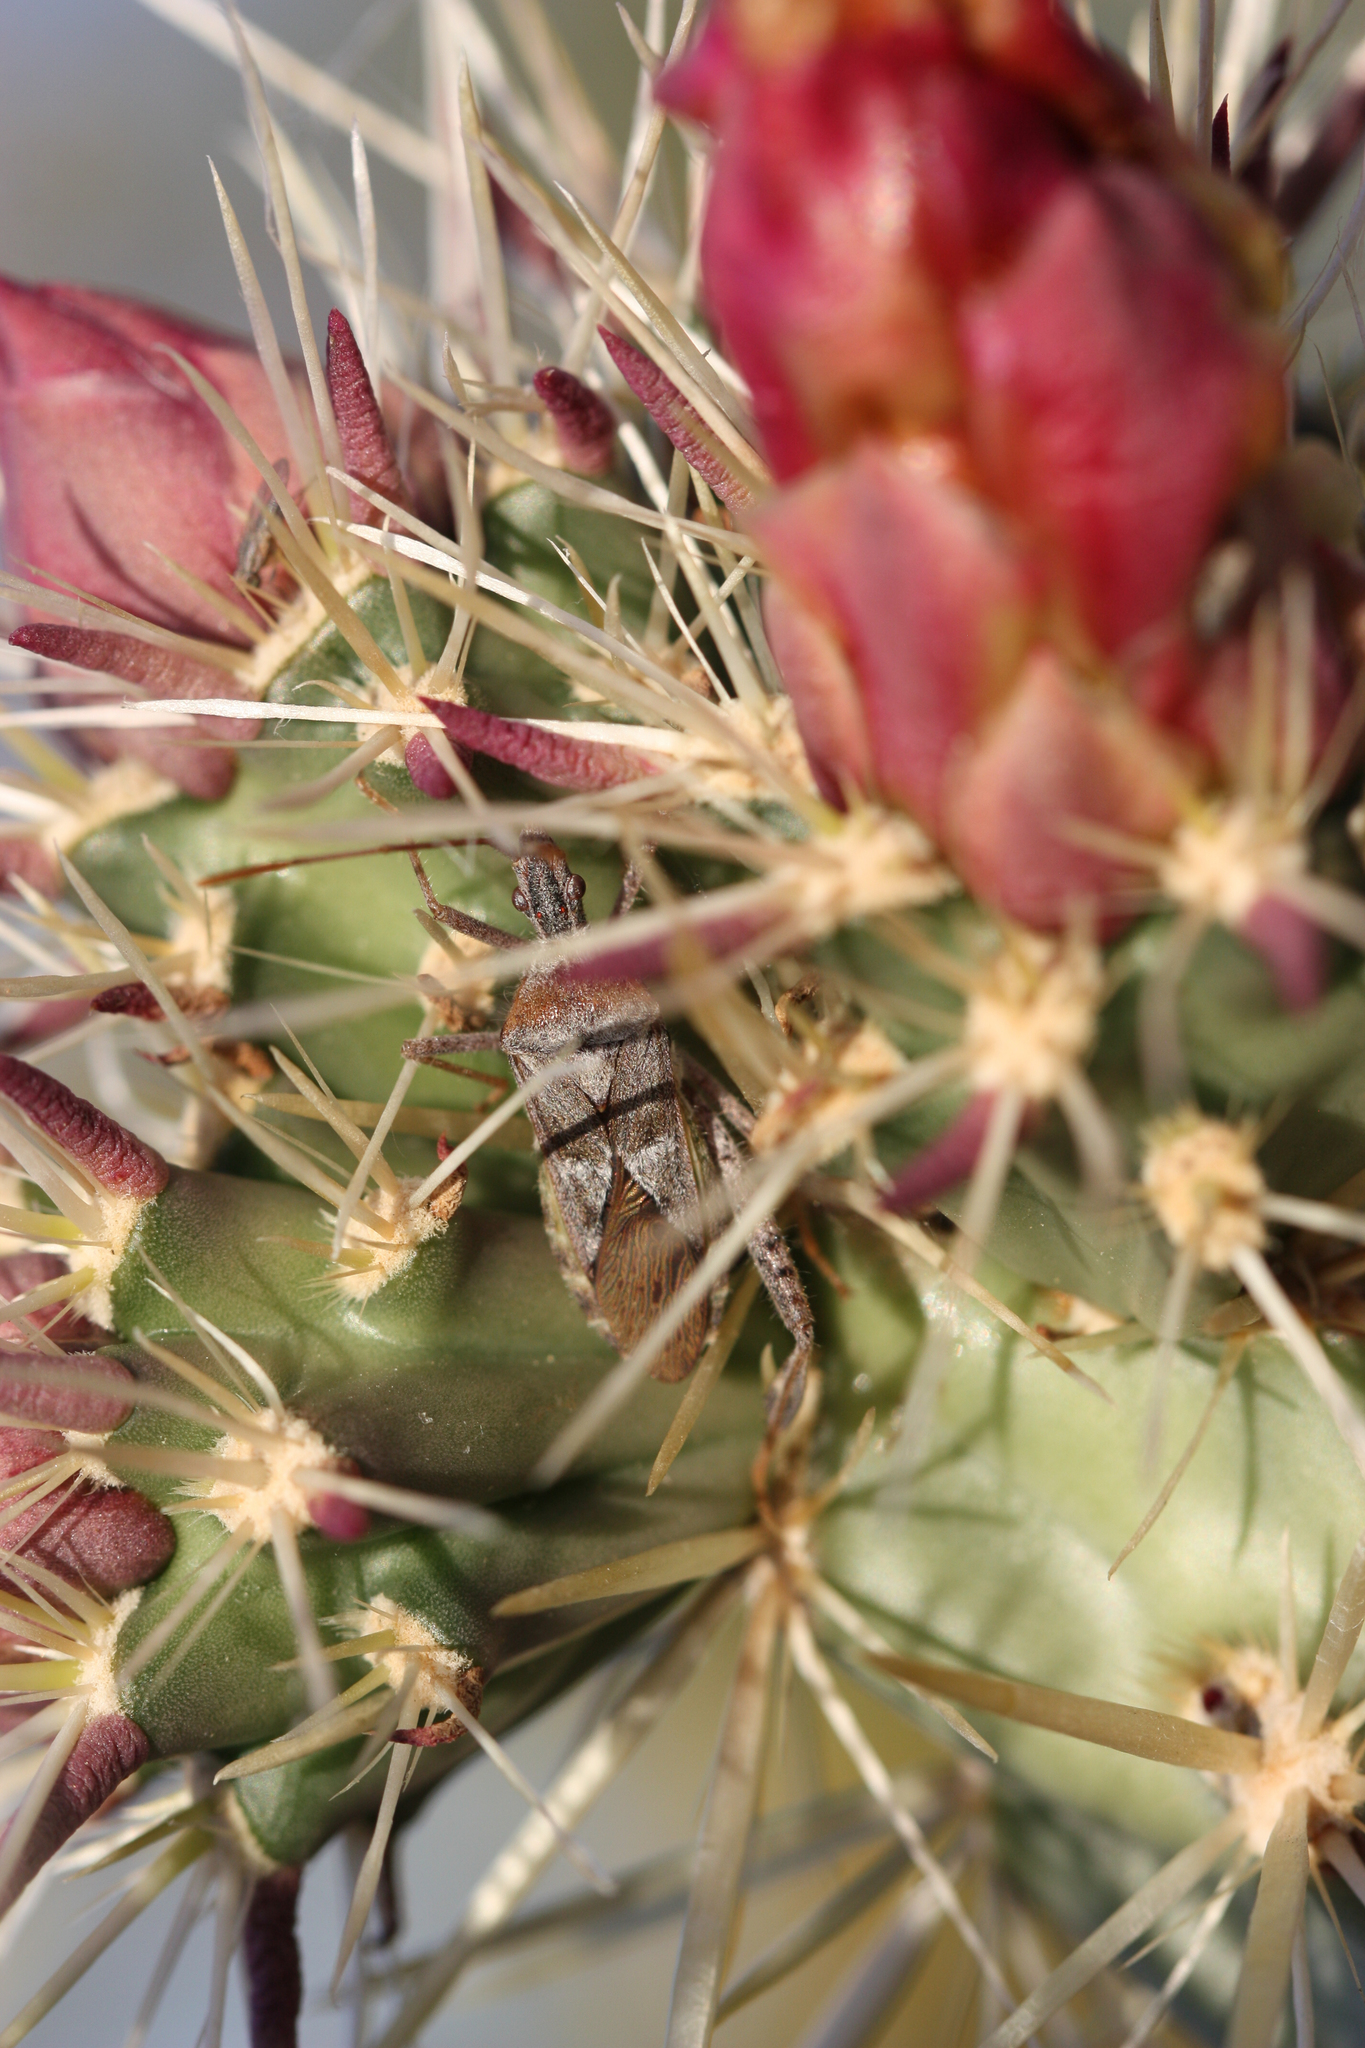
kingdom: Animalia
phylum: Arthropoda
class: Insecta
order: Hemiptera
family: Coreidae
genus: Narnia
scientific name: Narnia femorata
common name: Leaf-footed cactus bug
